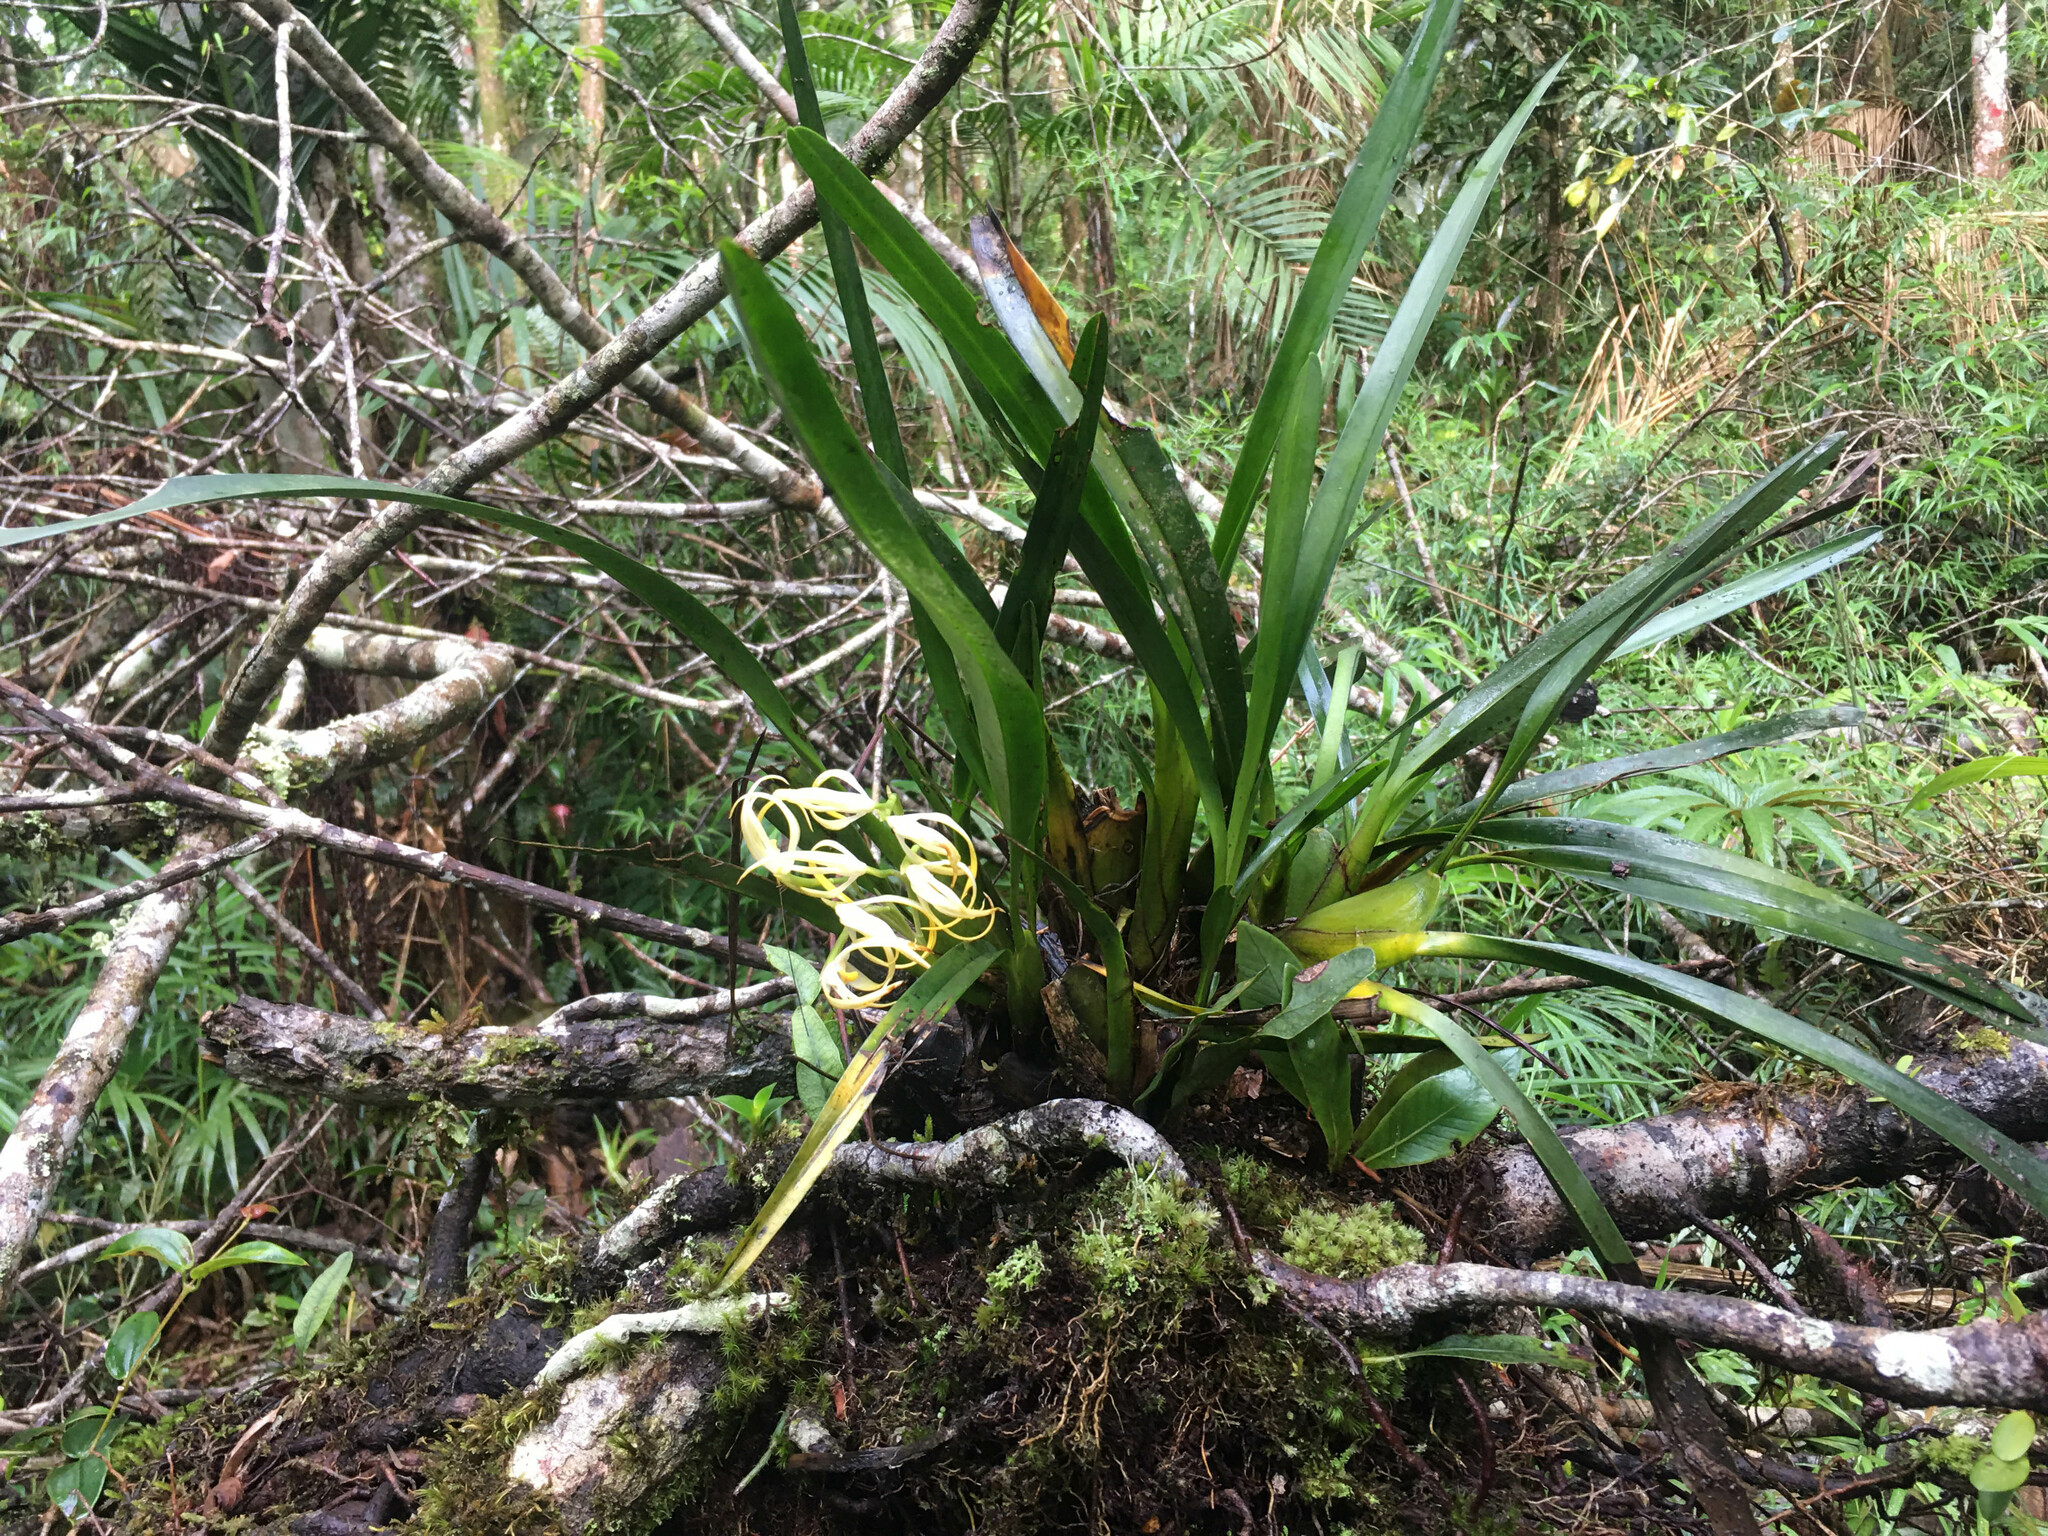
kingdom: Plantae
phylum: Tracheophyta
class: Liliopsida
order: Asparagales
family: Orchidaceae
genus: Maxillaria
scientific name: Maxillaria ochroleuca
